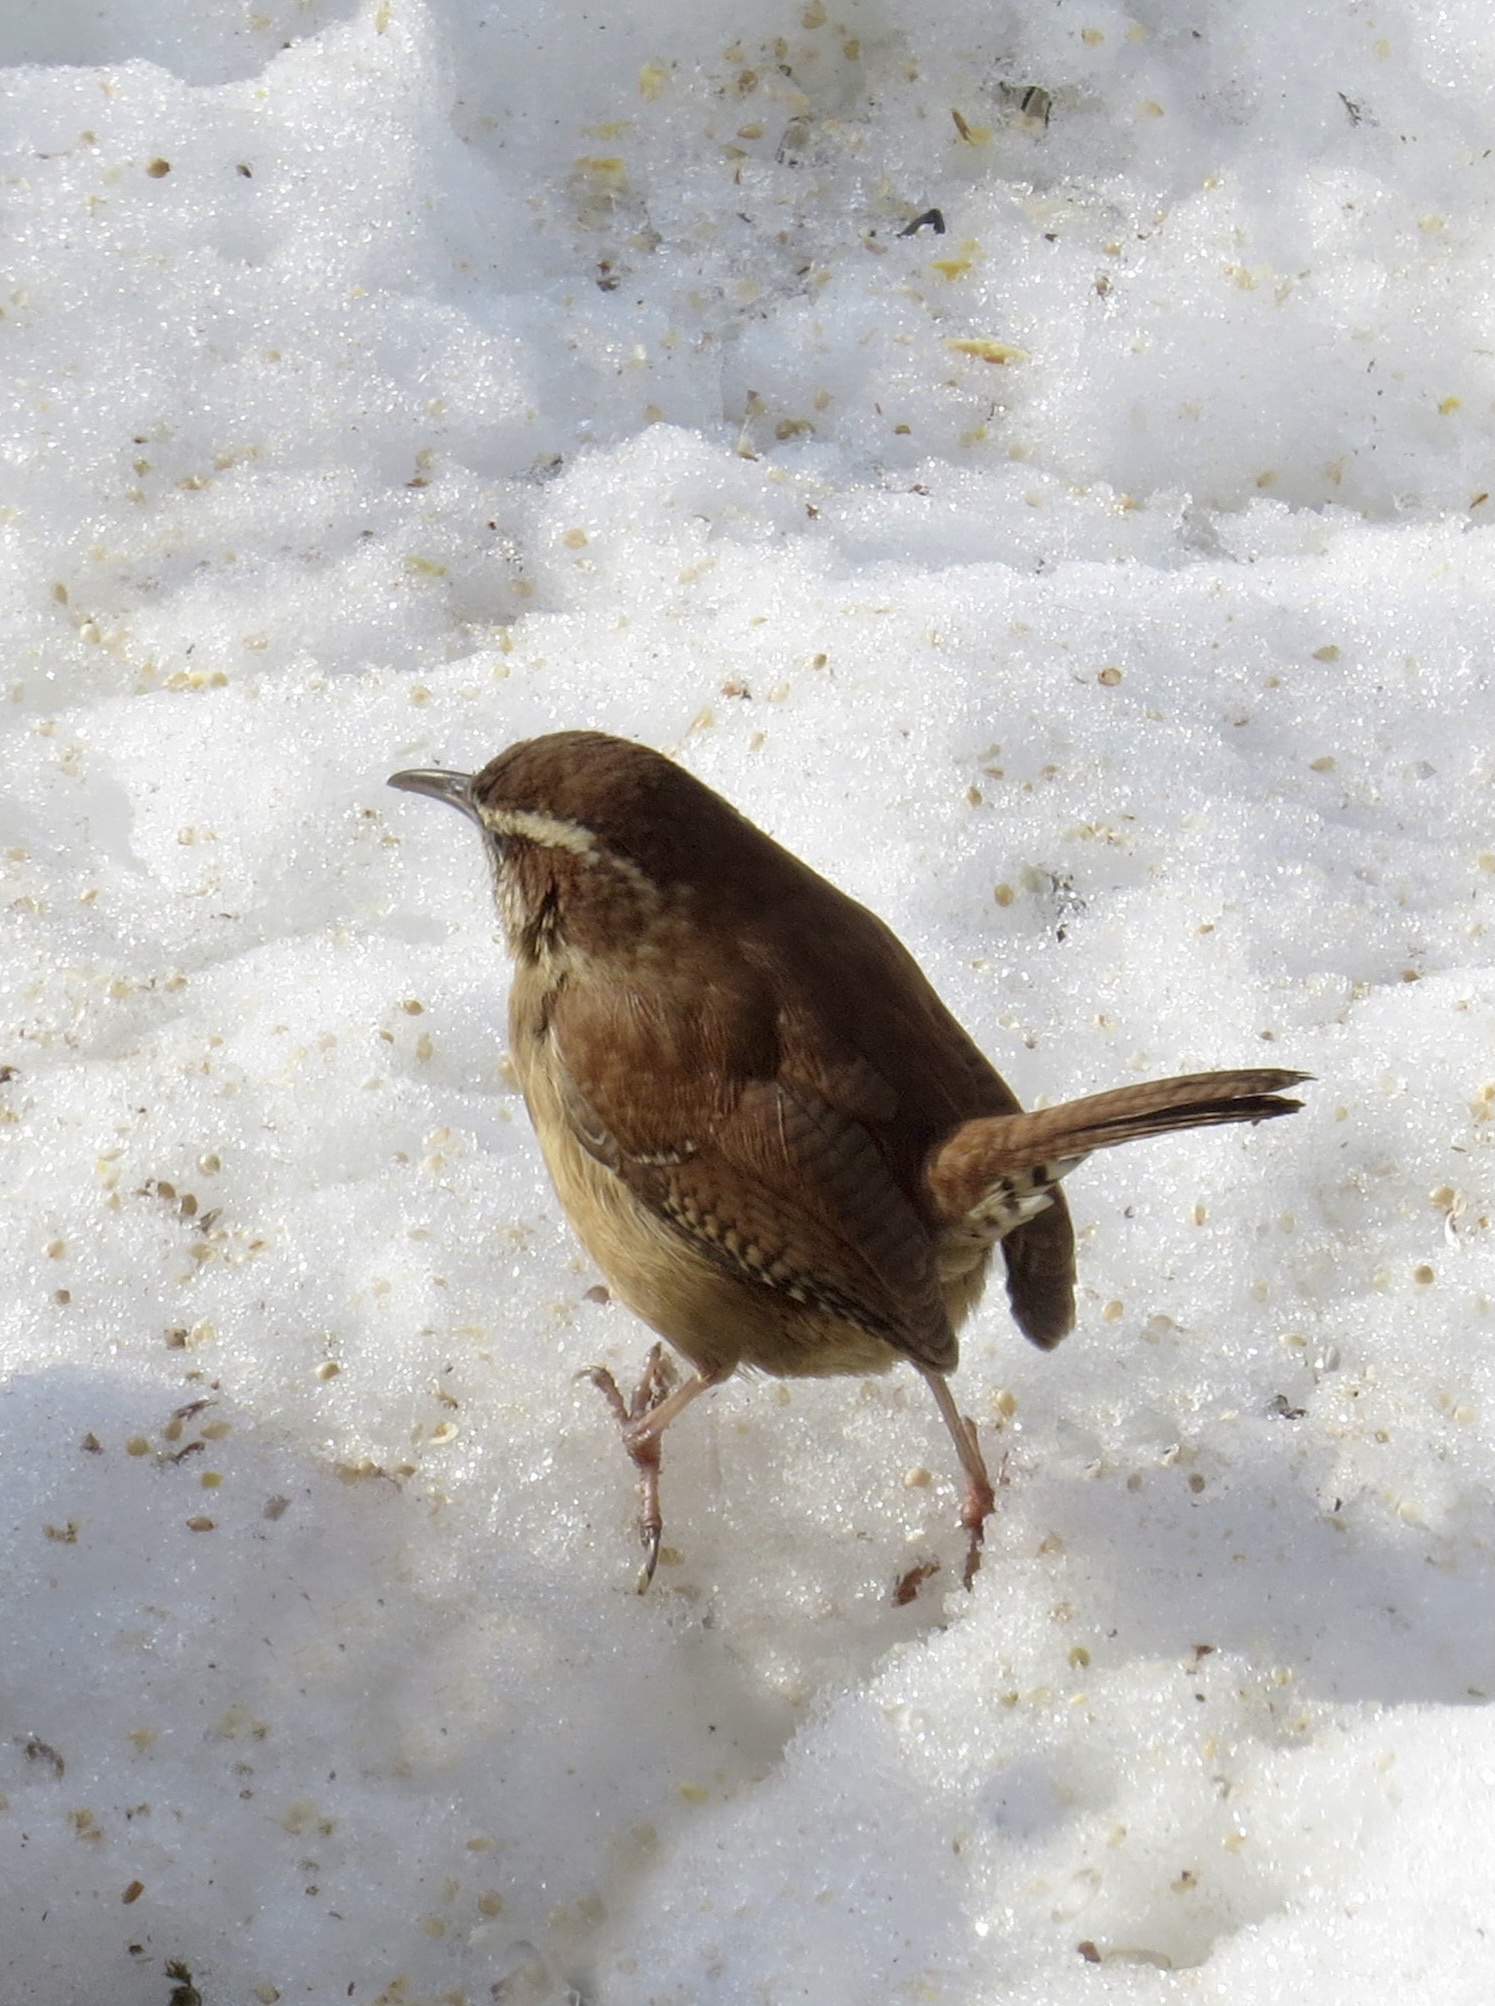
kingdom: Animalia
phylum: Chordata
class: Aves
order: Passeriformes
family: Troglodytidae
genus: Thryothorus
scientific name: Thryothorus ludovicianus
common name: Carolina wren
